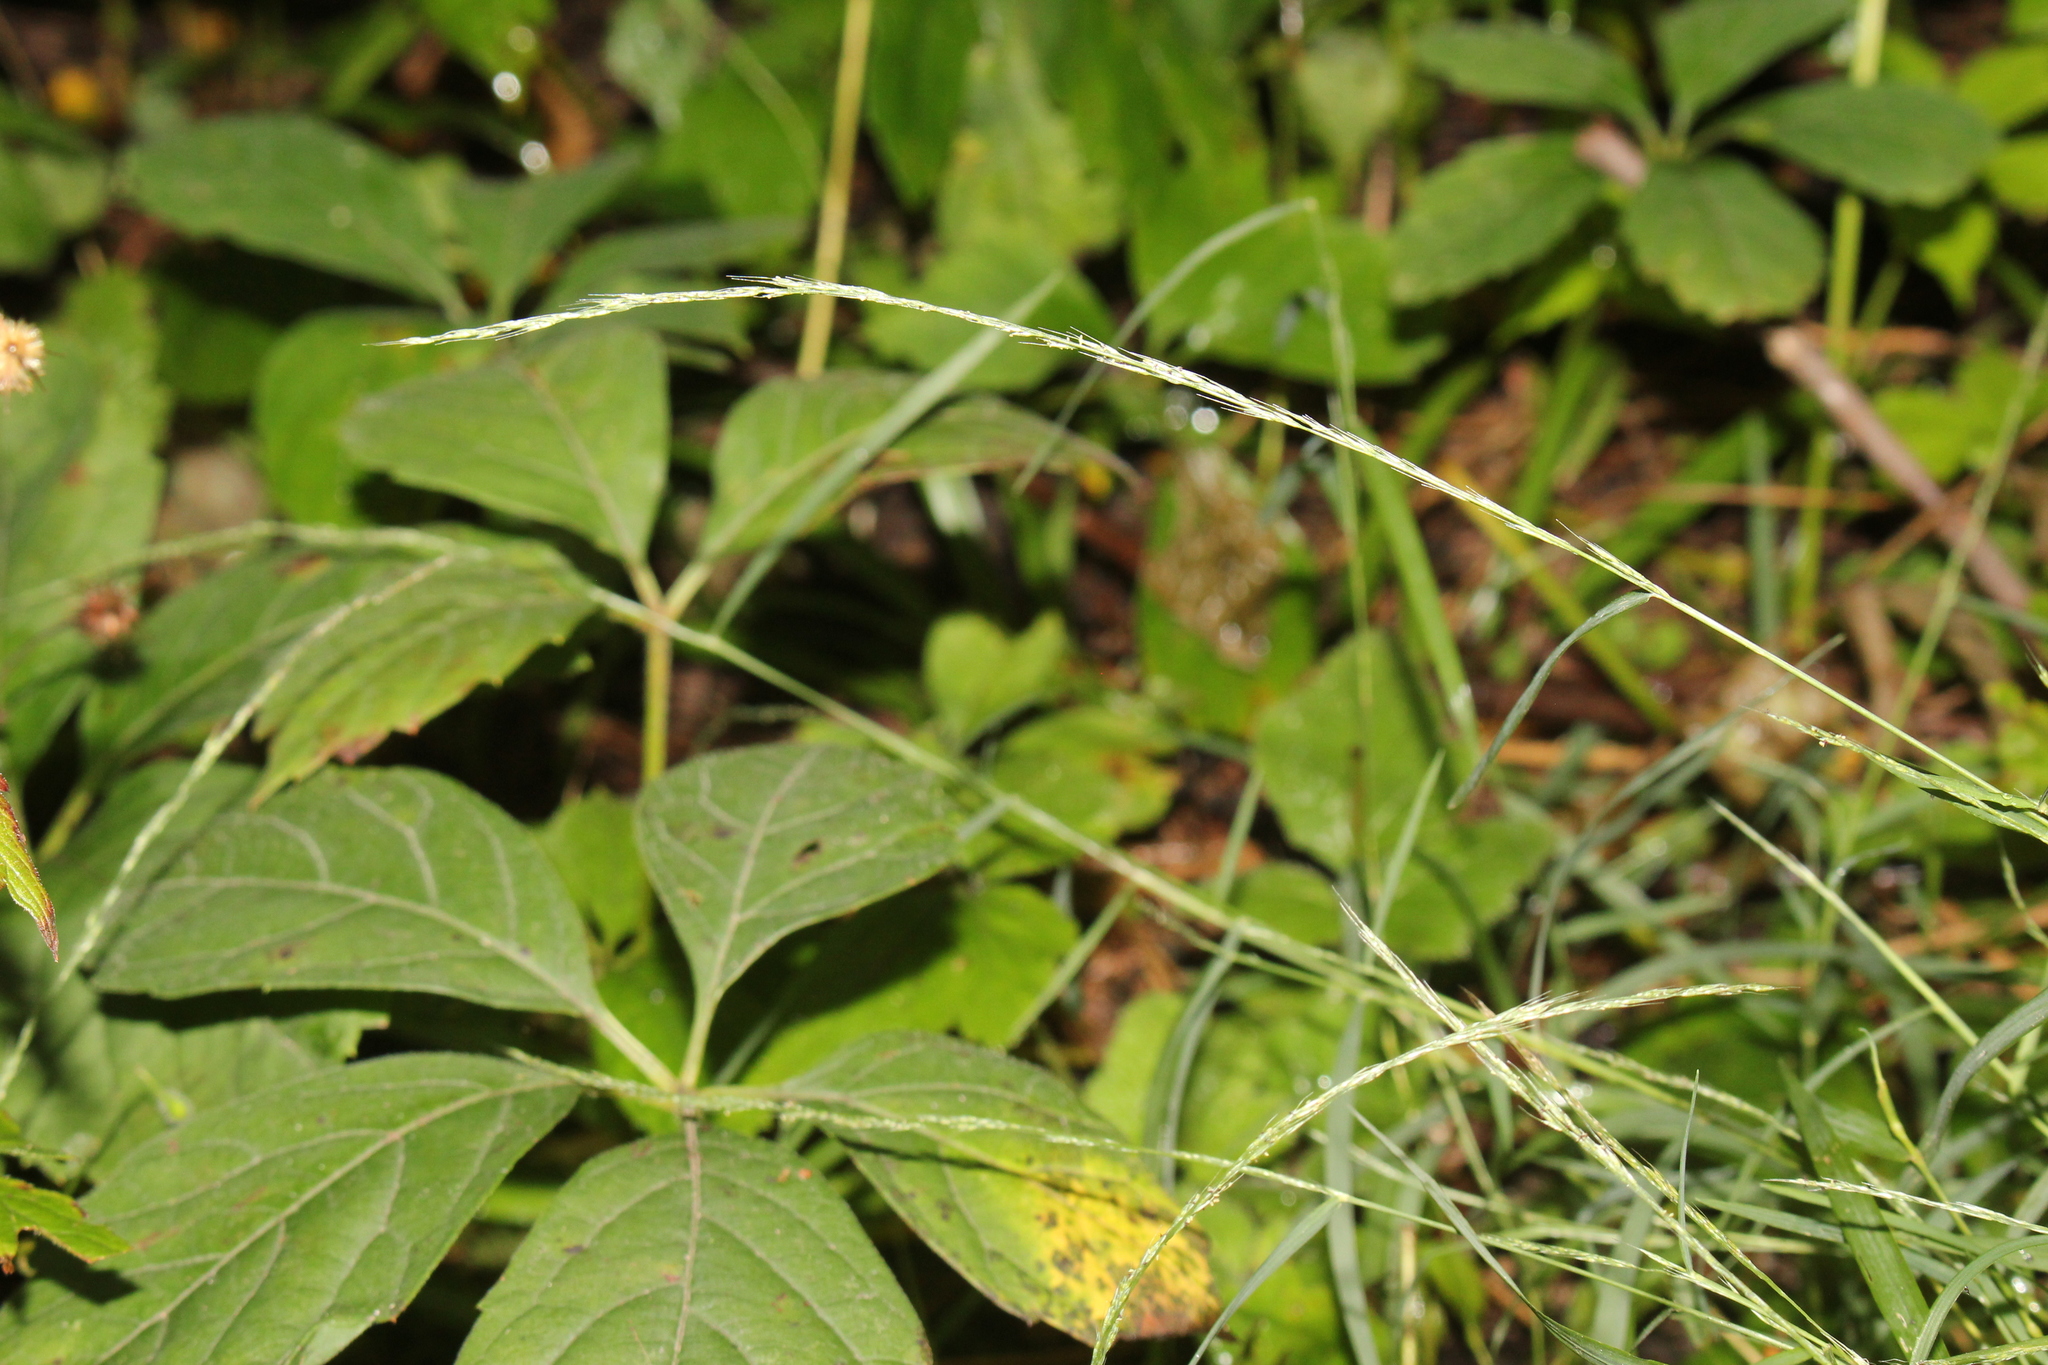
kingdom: Plantae
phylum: Tracheophyta
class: Liliopsida
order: Poales
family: Poaceae
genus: Muhlenbergia
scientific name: Muhlenbergia schreberi
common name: Nimblewill
